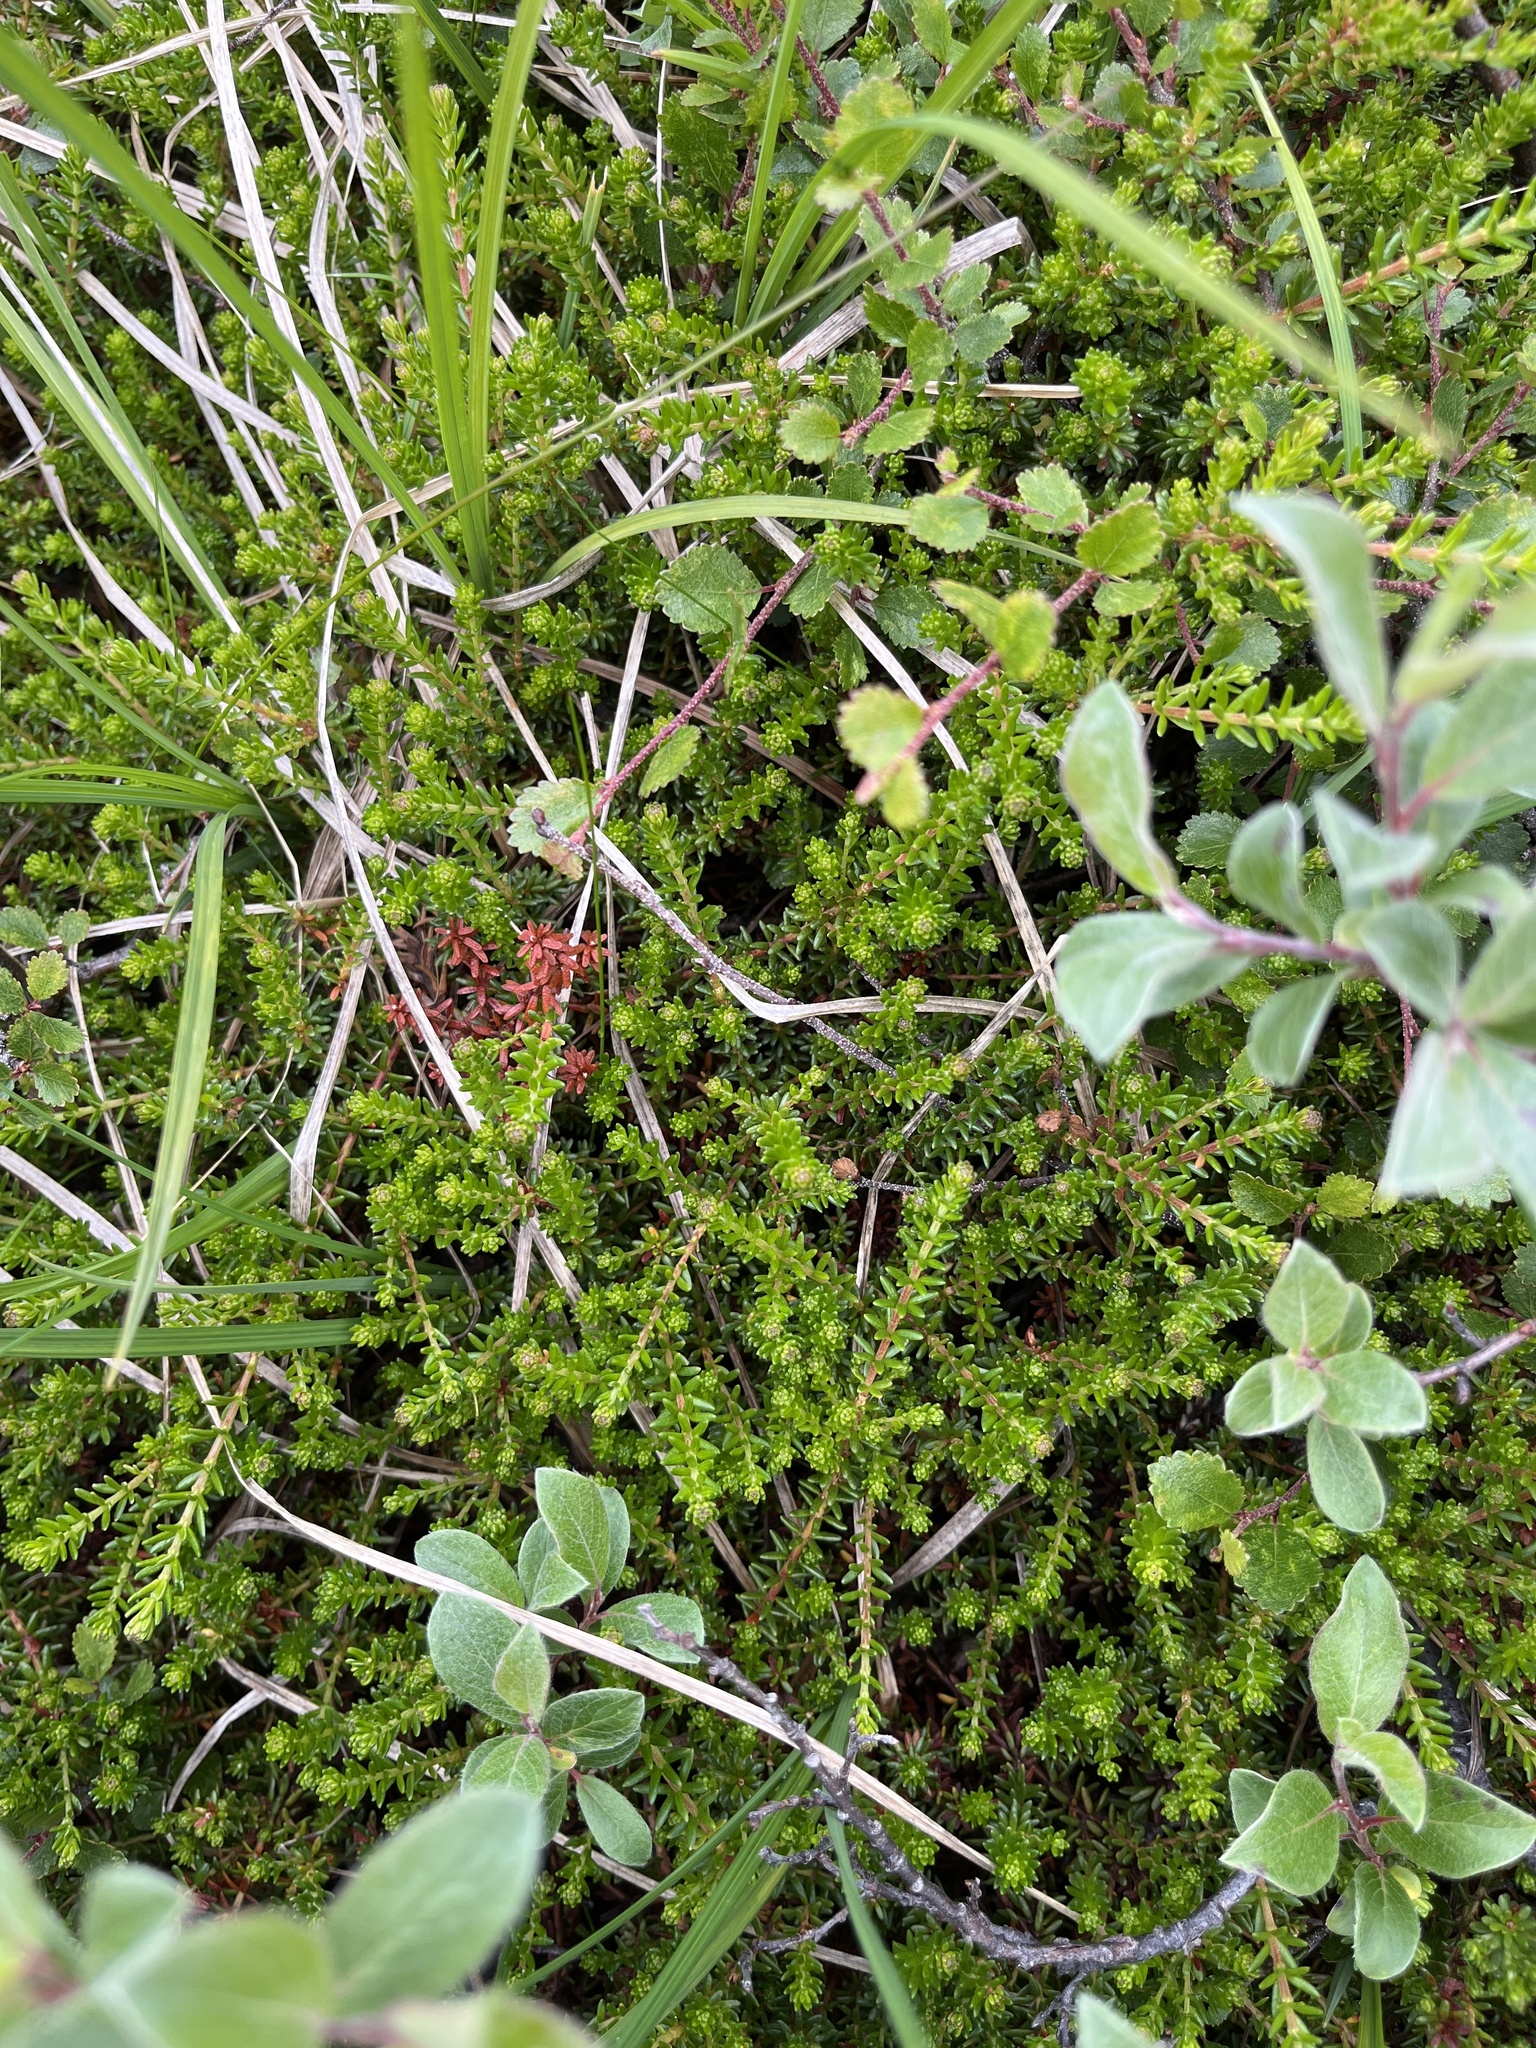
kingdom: Plantae
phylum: Tracheophyta
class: Magnoliopsida
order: Ericales
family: Ericaceae
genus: Empetrum
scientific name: Empetrum hermaphroditum
